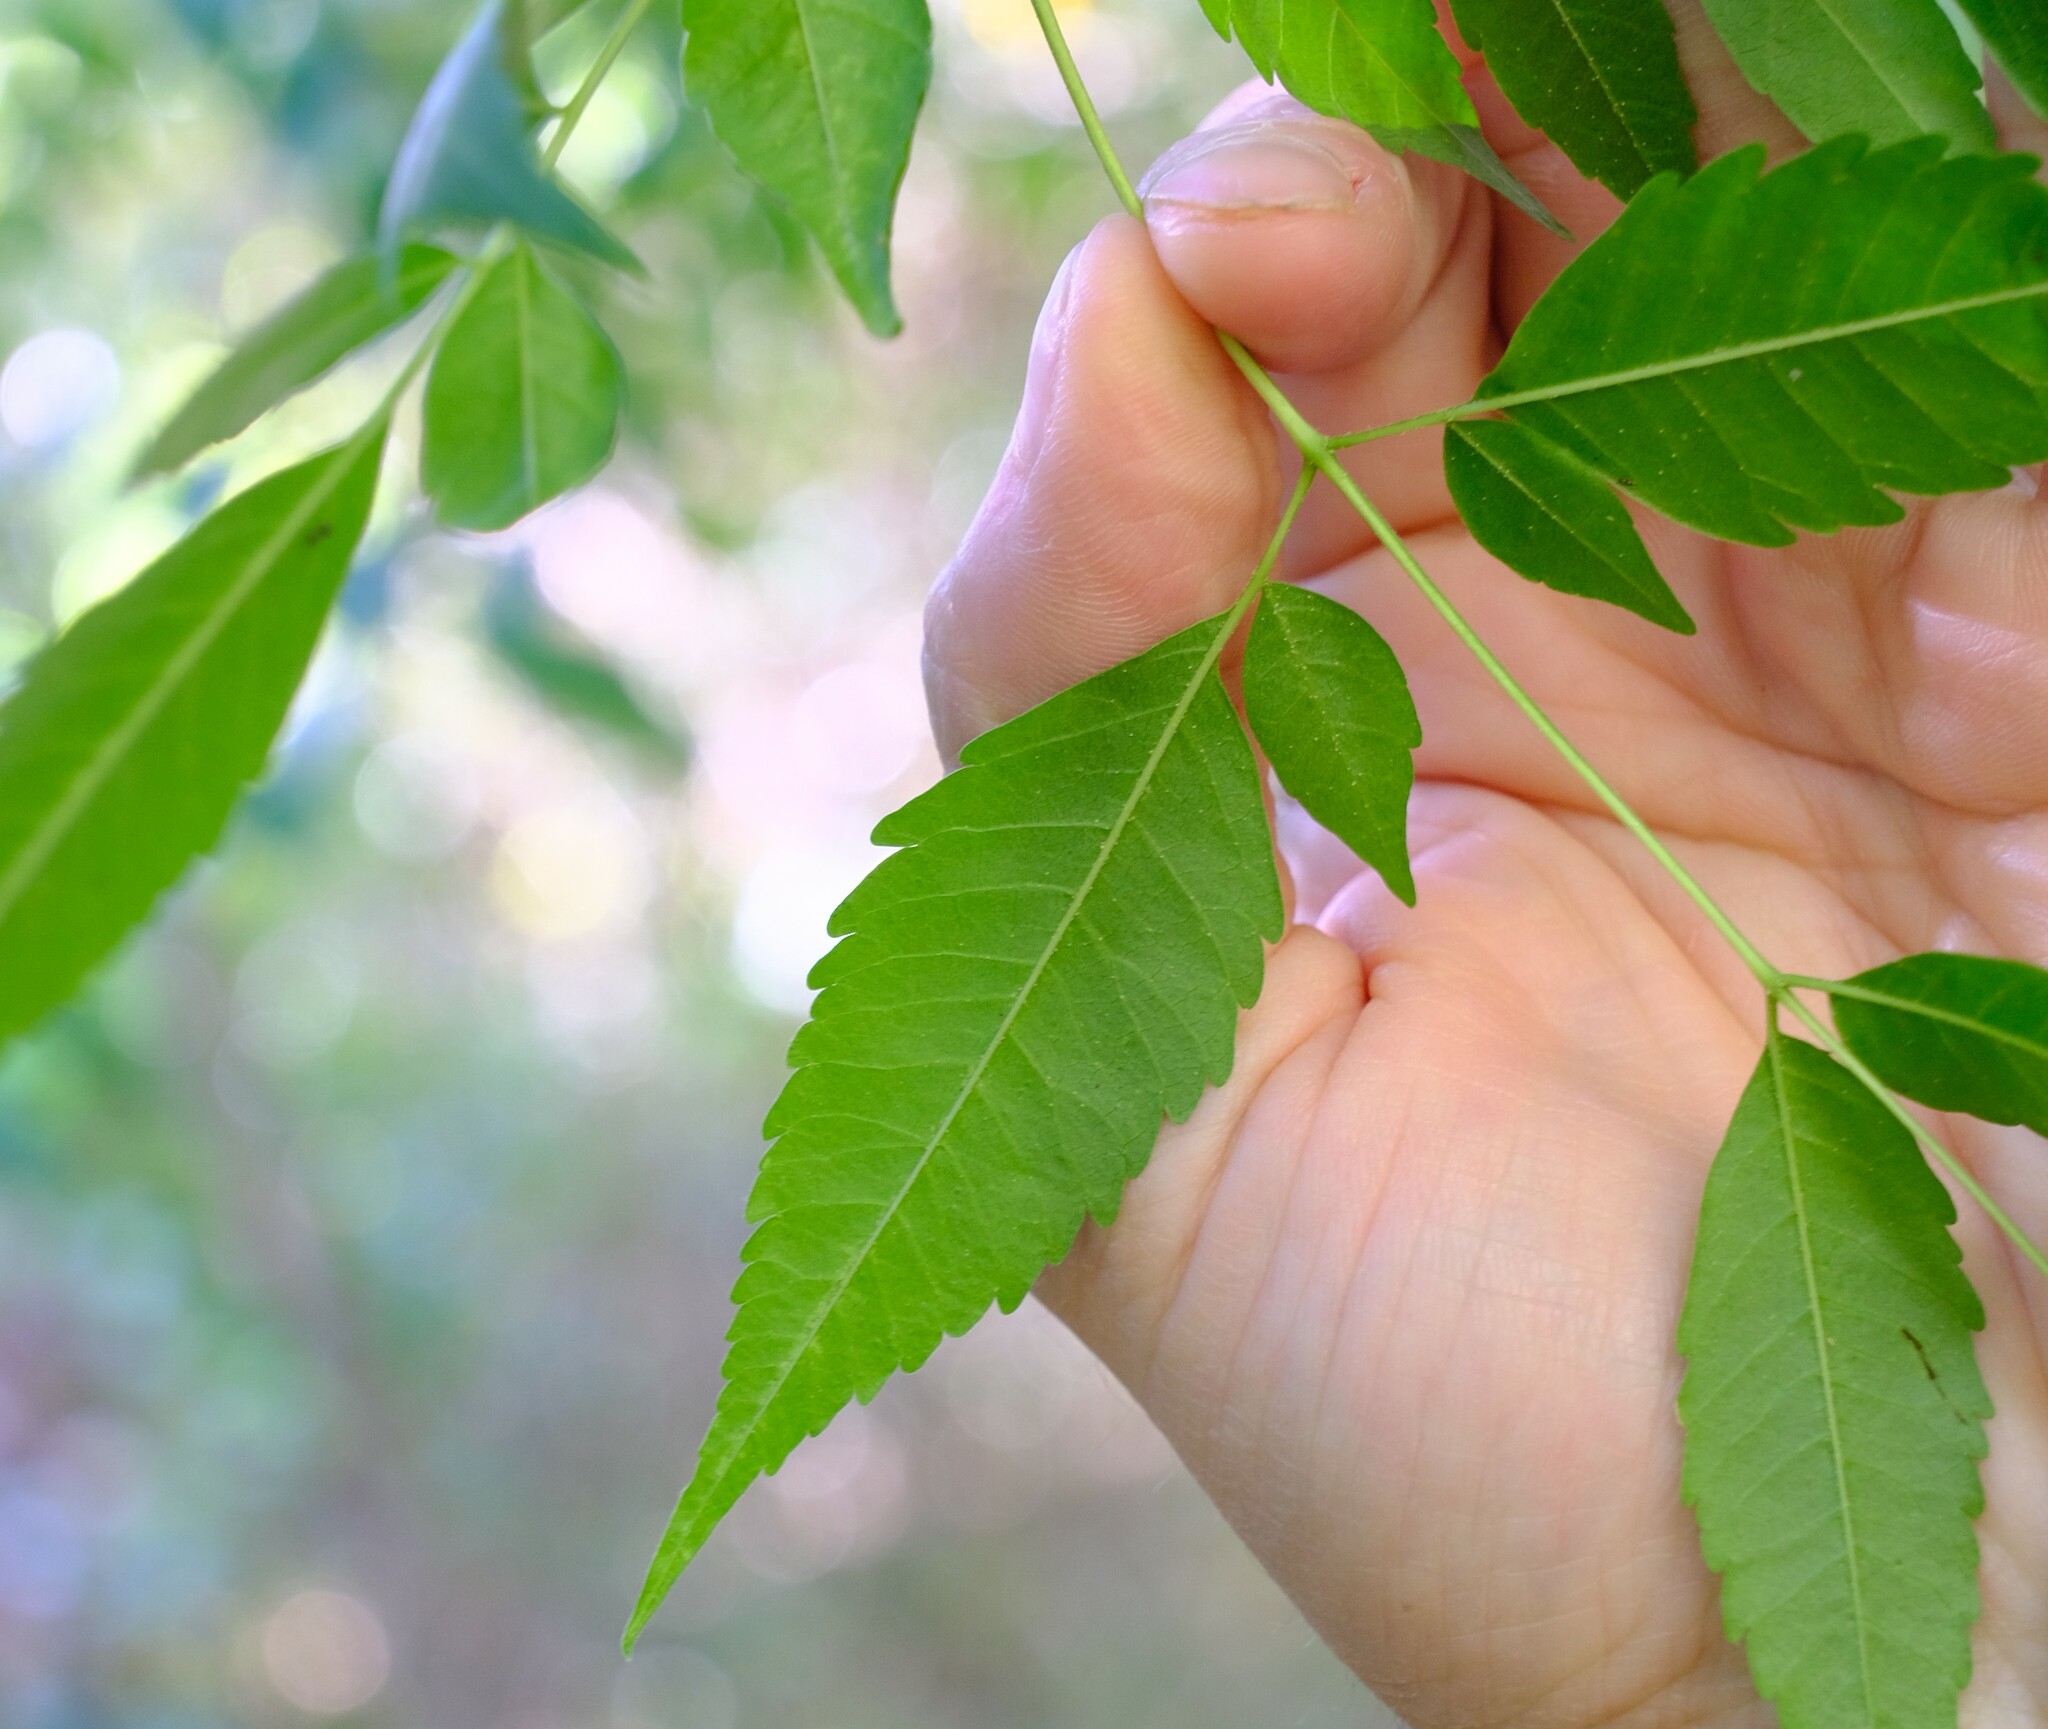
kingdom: Plantae
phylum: Tracheophyta
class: Magnoliopsida
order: Sapindales
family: Meliaceae
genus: Melia
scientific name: Melia azedarach
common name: Chinaberrytree
